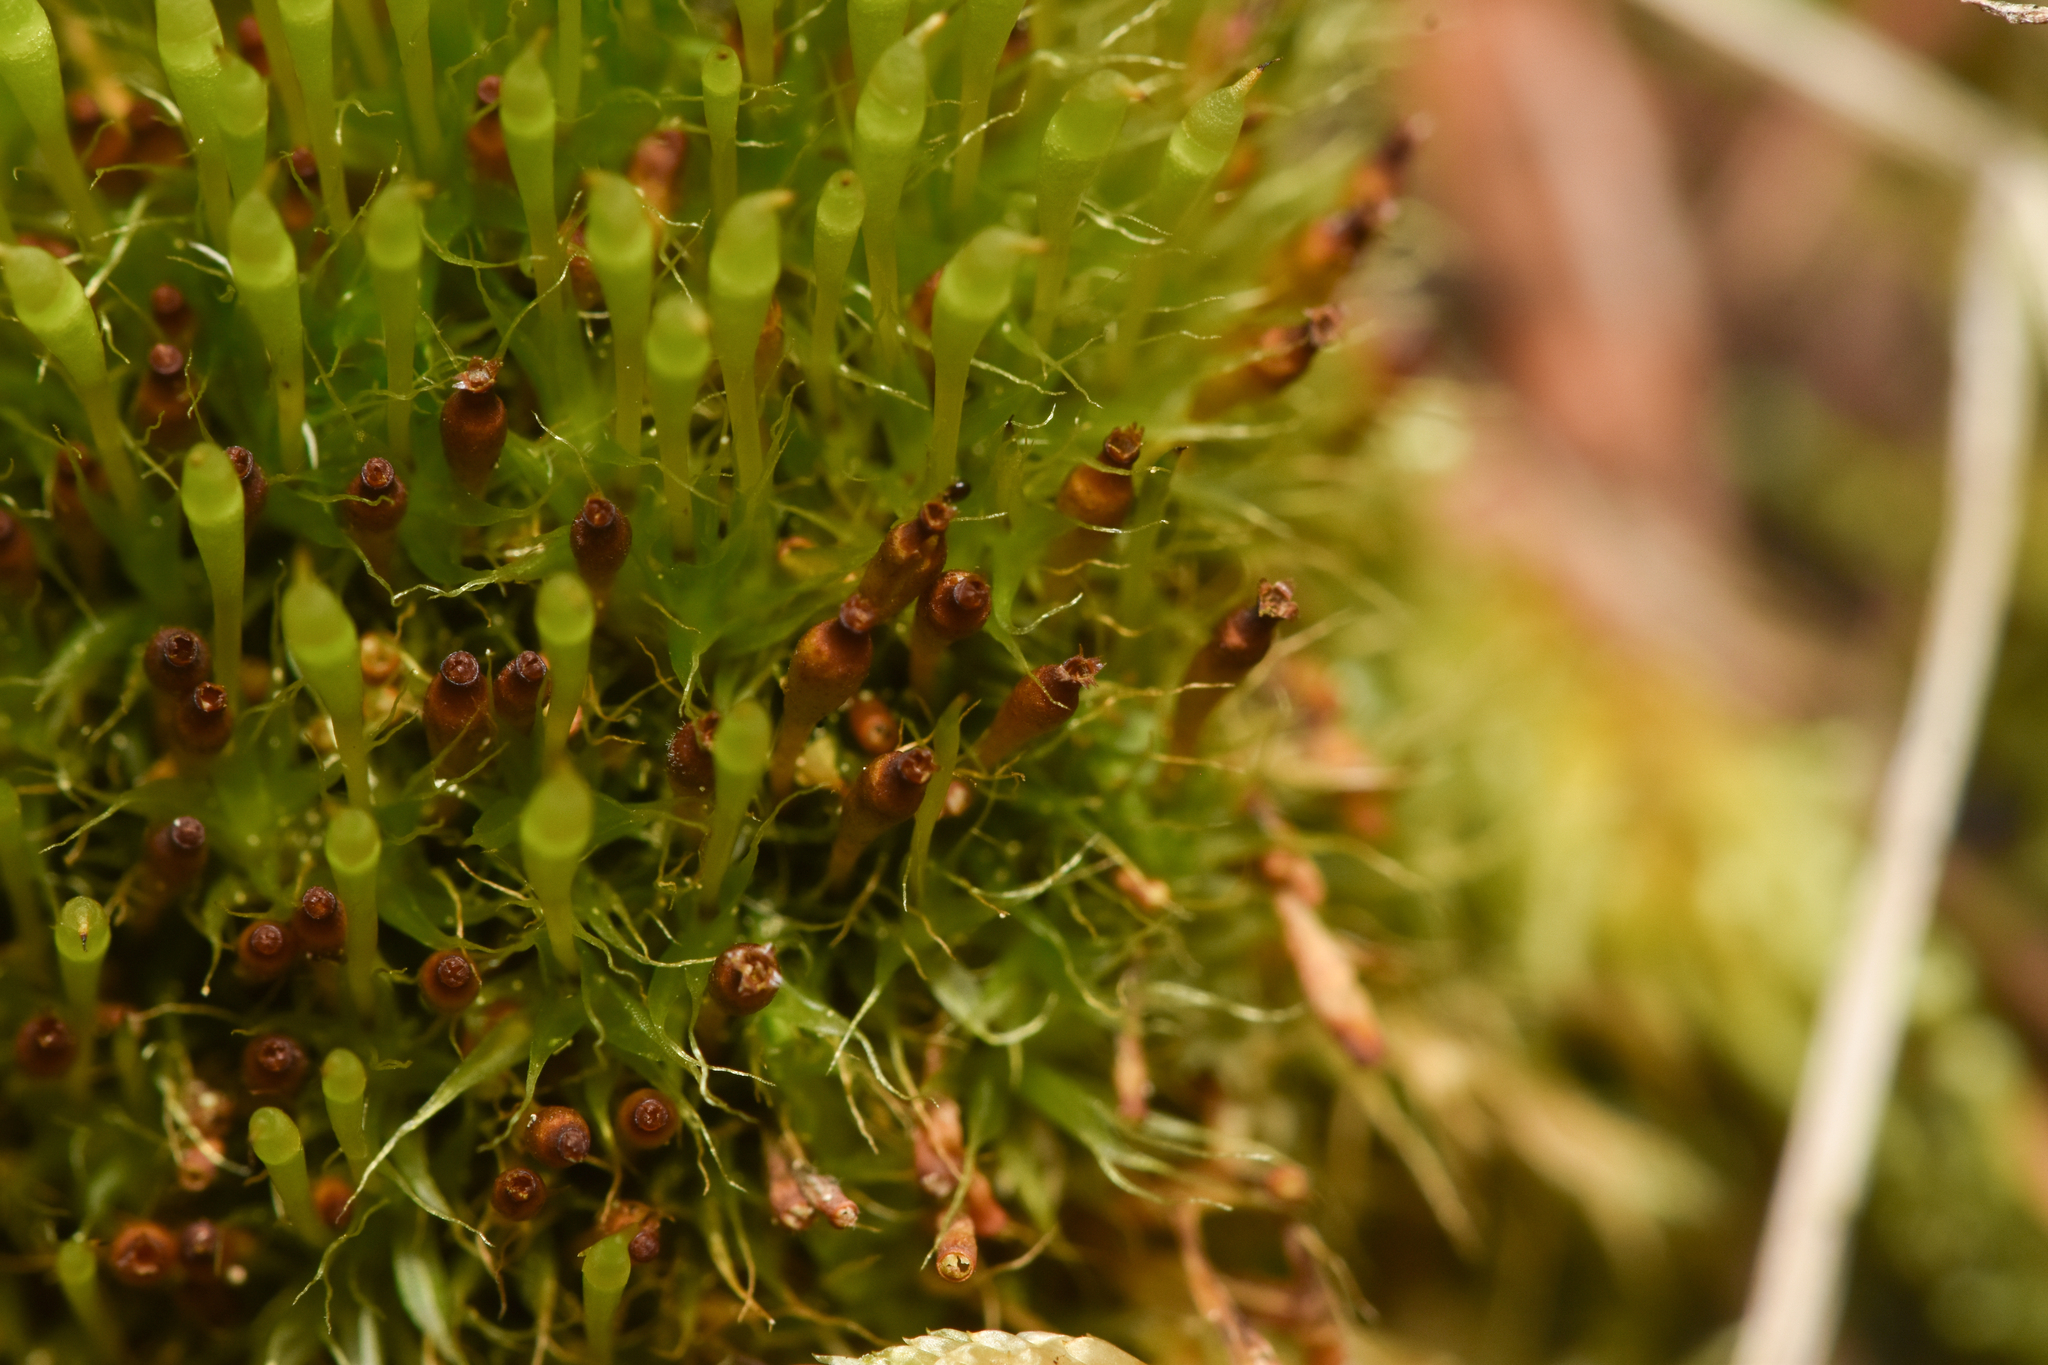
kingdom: Plantae
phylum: Bryophyta
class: Bryopsida
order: Splachnales
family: Splachnaceae
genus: Tetraplodon
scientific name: Tetraplodon angustatus
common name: Narrow cruet-moss
